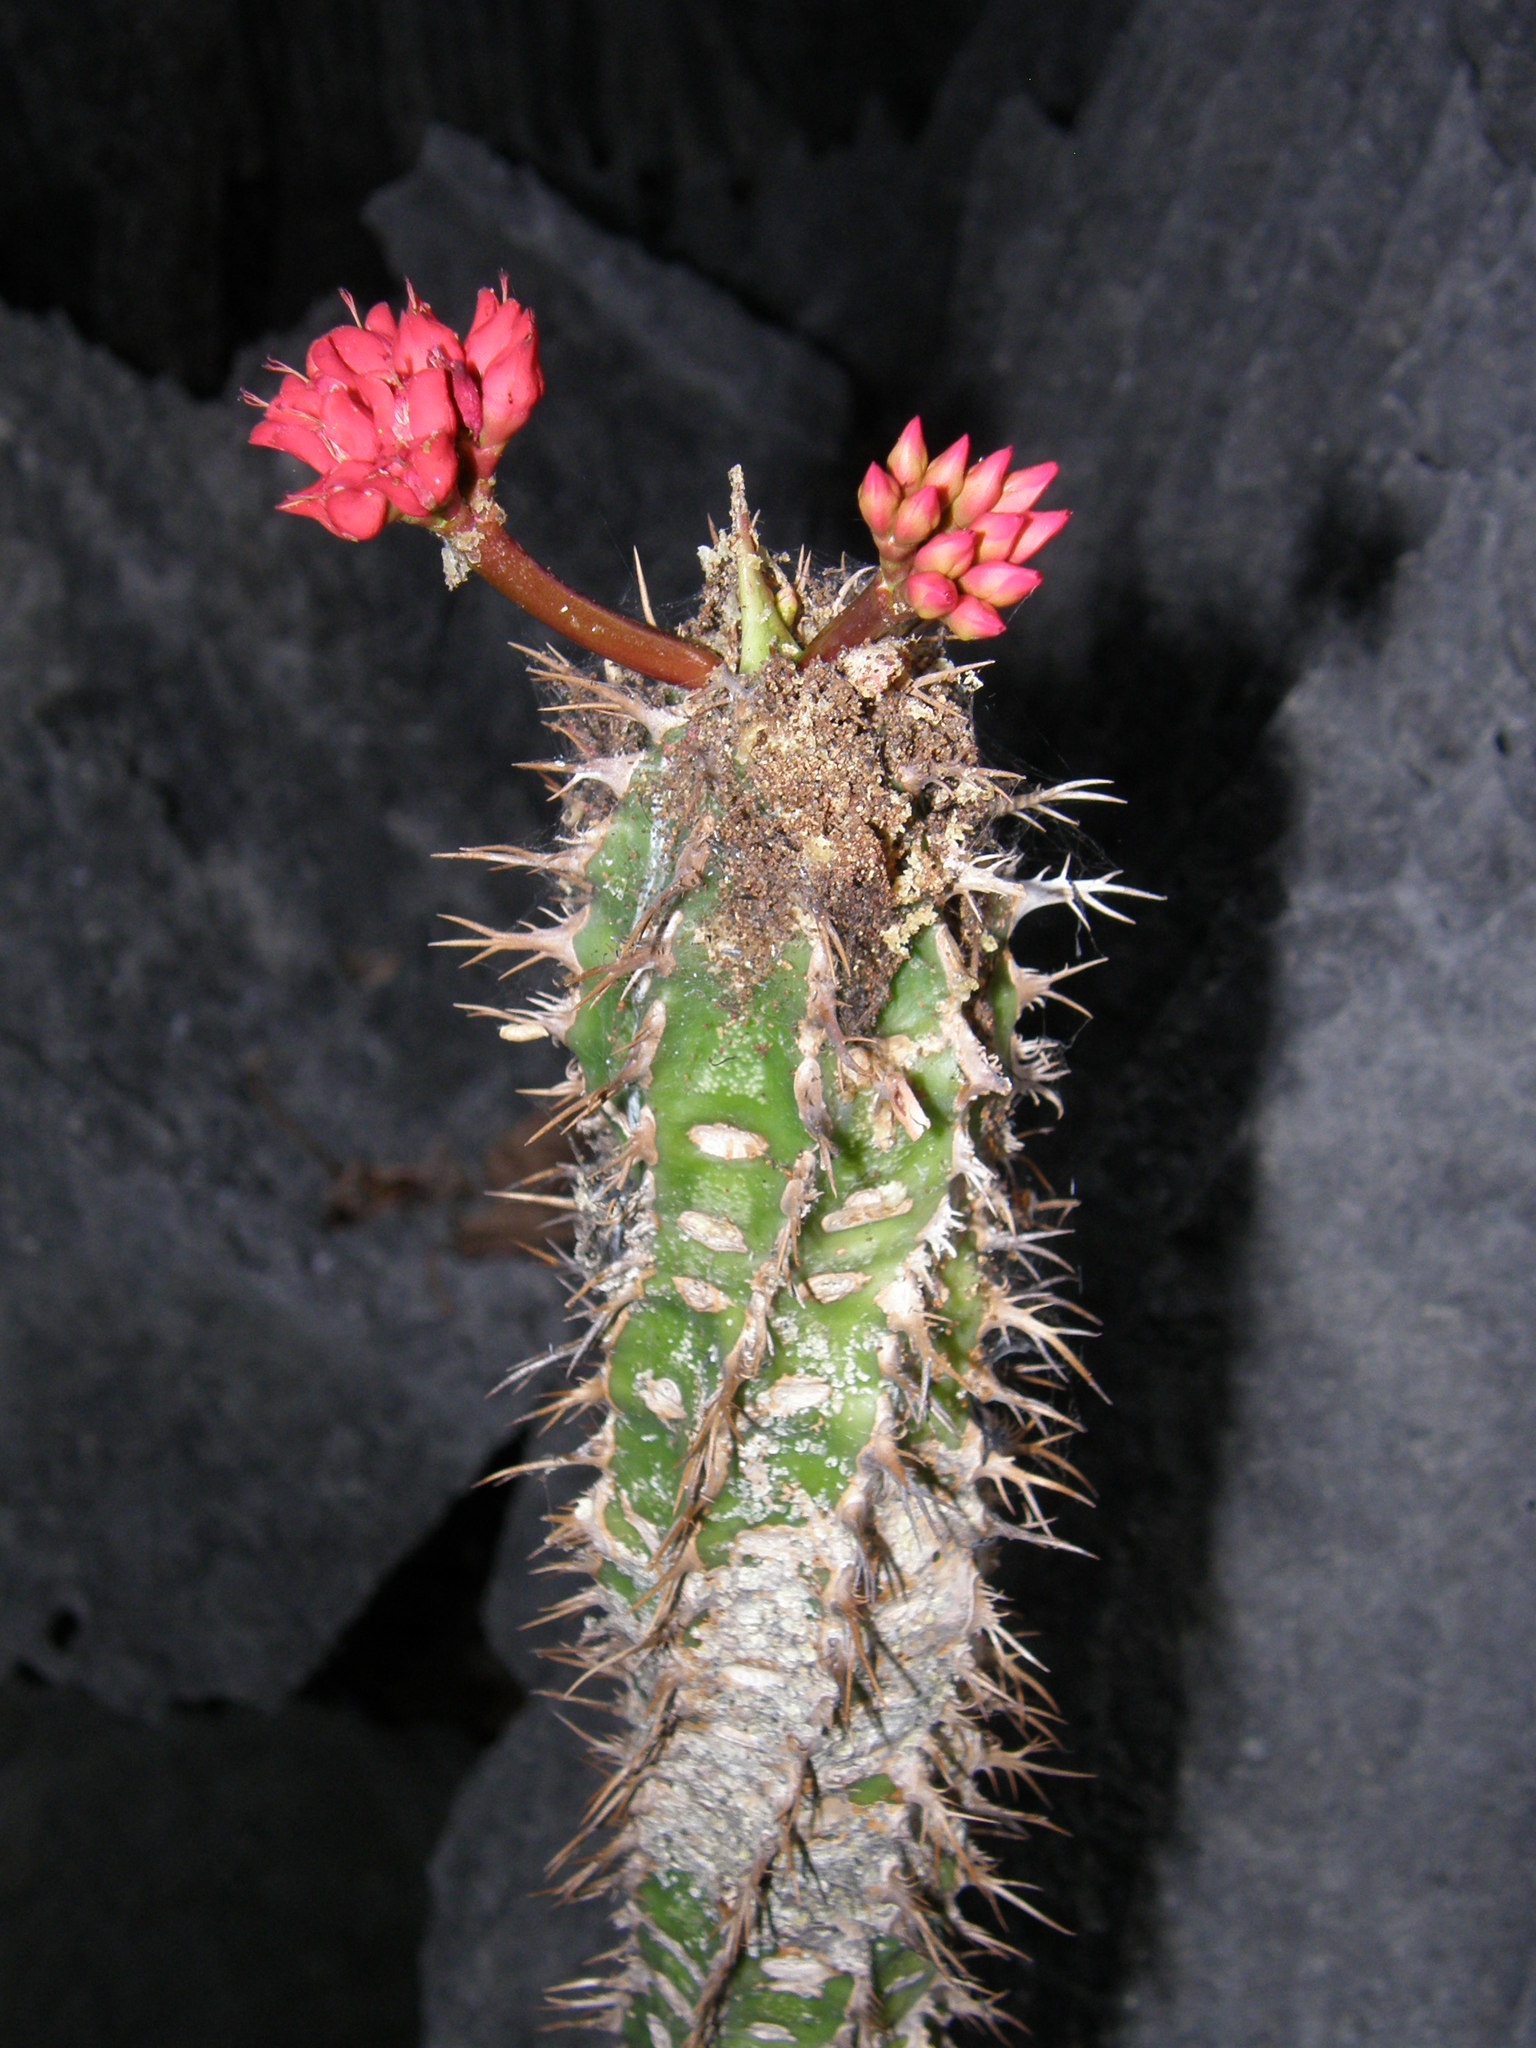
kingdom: Plantae
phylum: Tracheophyta
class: Magnoliopsida
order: Malpighiales
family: Euphorbiaceae
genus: Euphorbia
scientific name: Euphorbia viguieri
